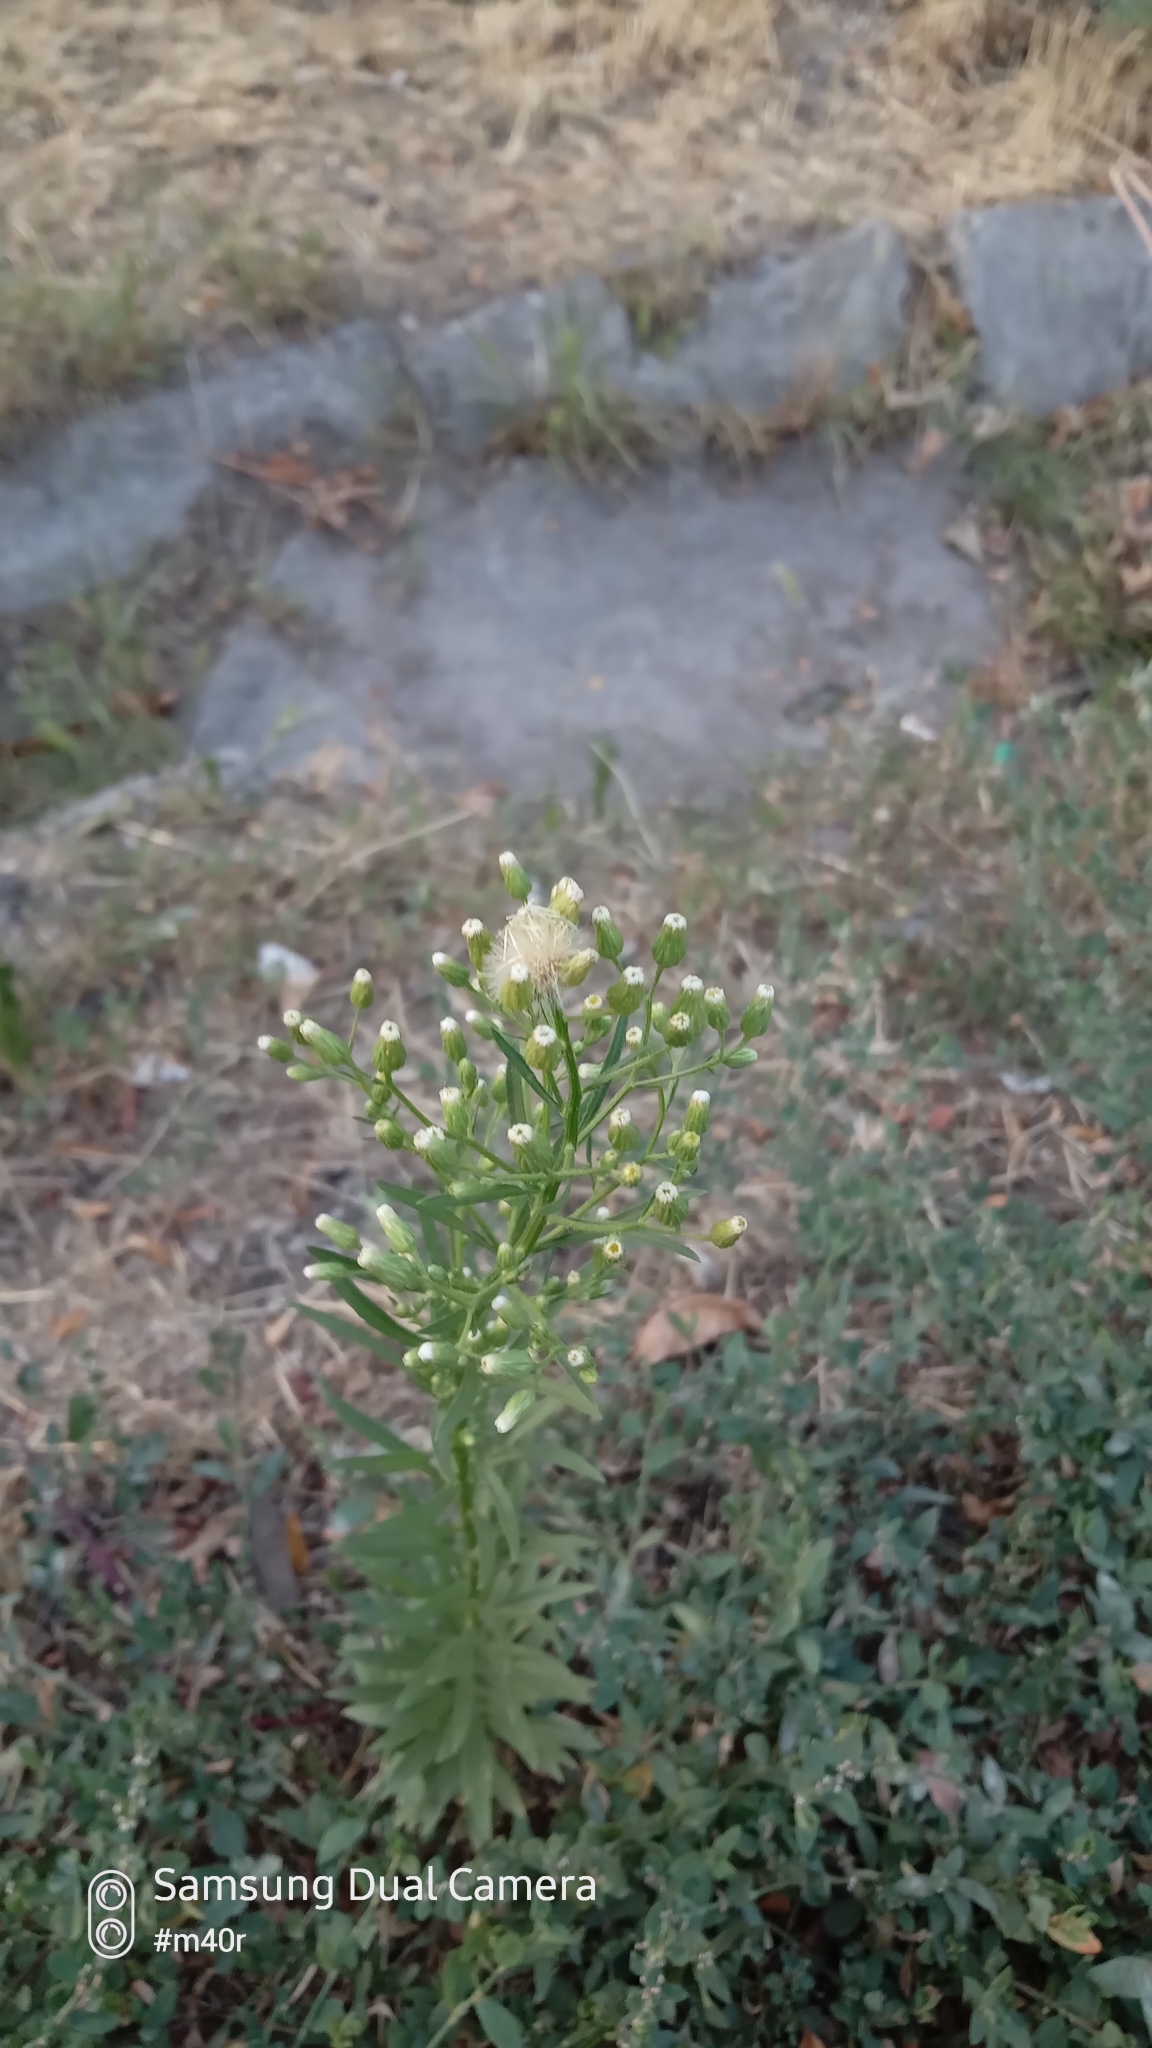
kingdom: Plantae
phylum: Tracheophyta
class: Magnoliopsida
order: Asterales
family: Asteraceae
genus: Erigeron
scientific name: Erigeron canadensis
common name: Canadian fleabane
